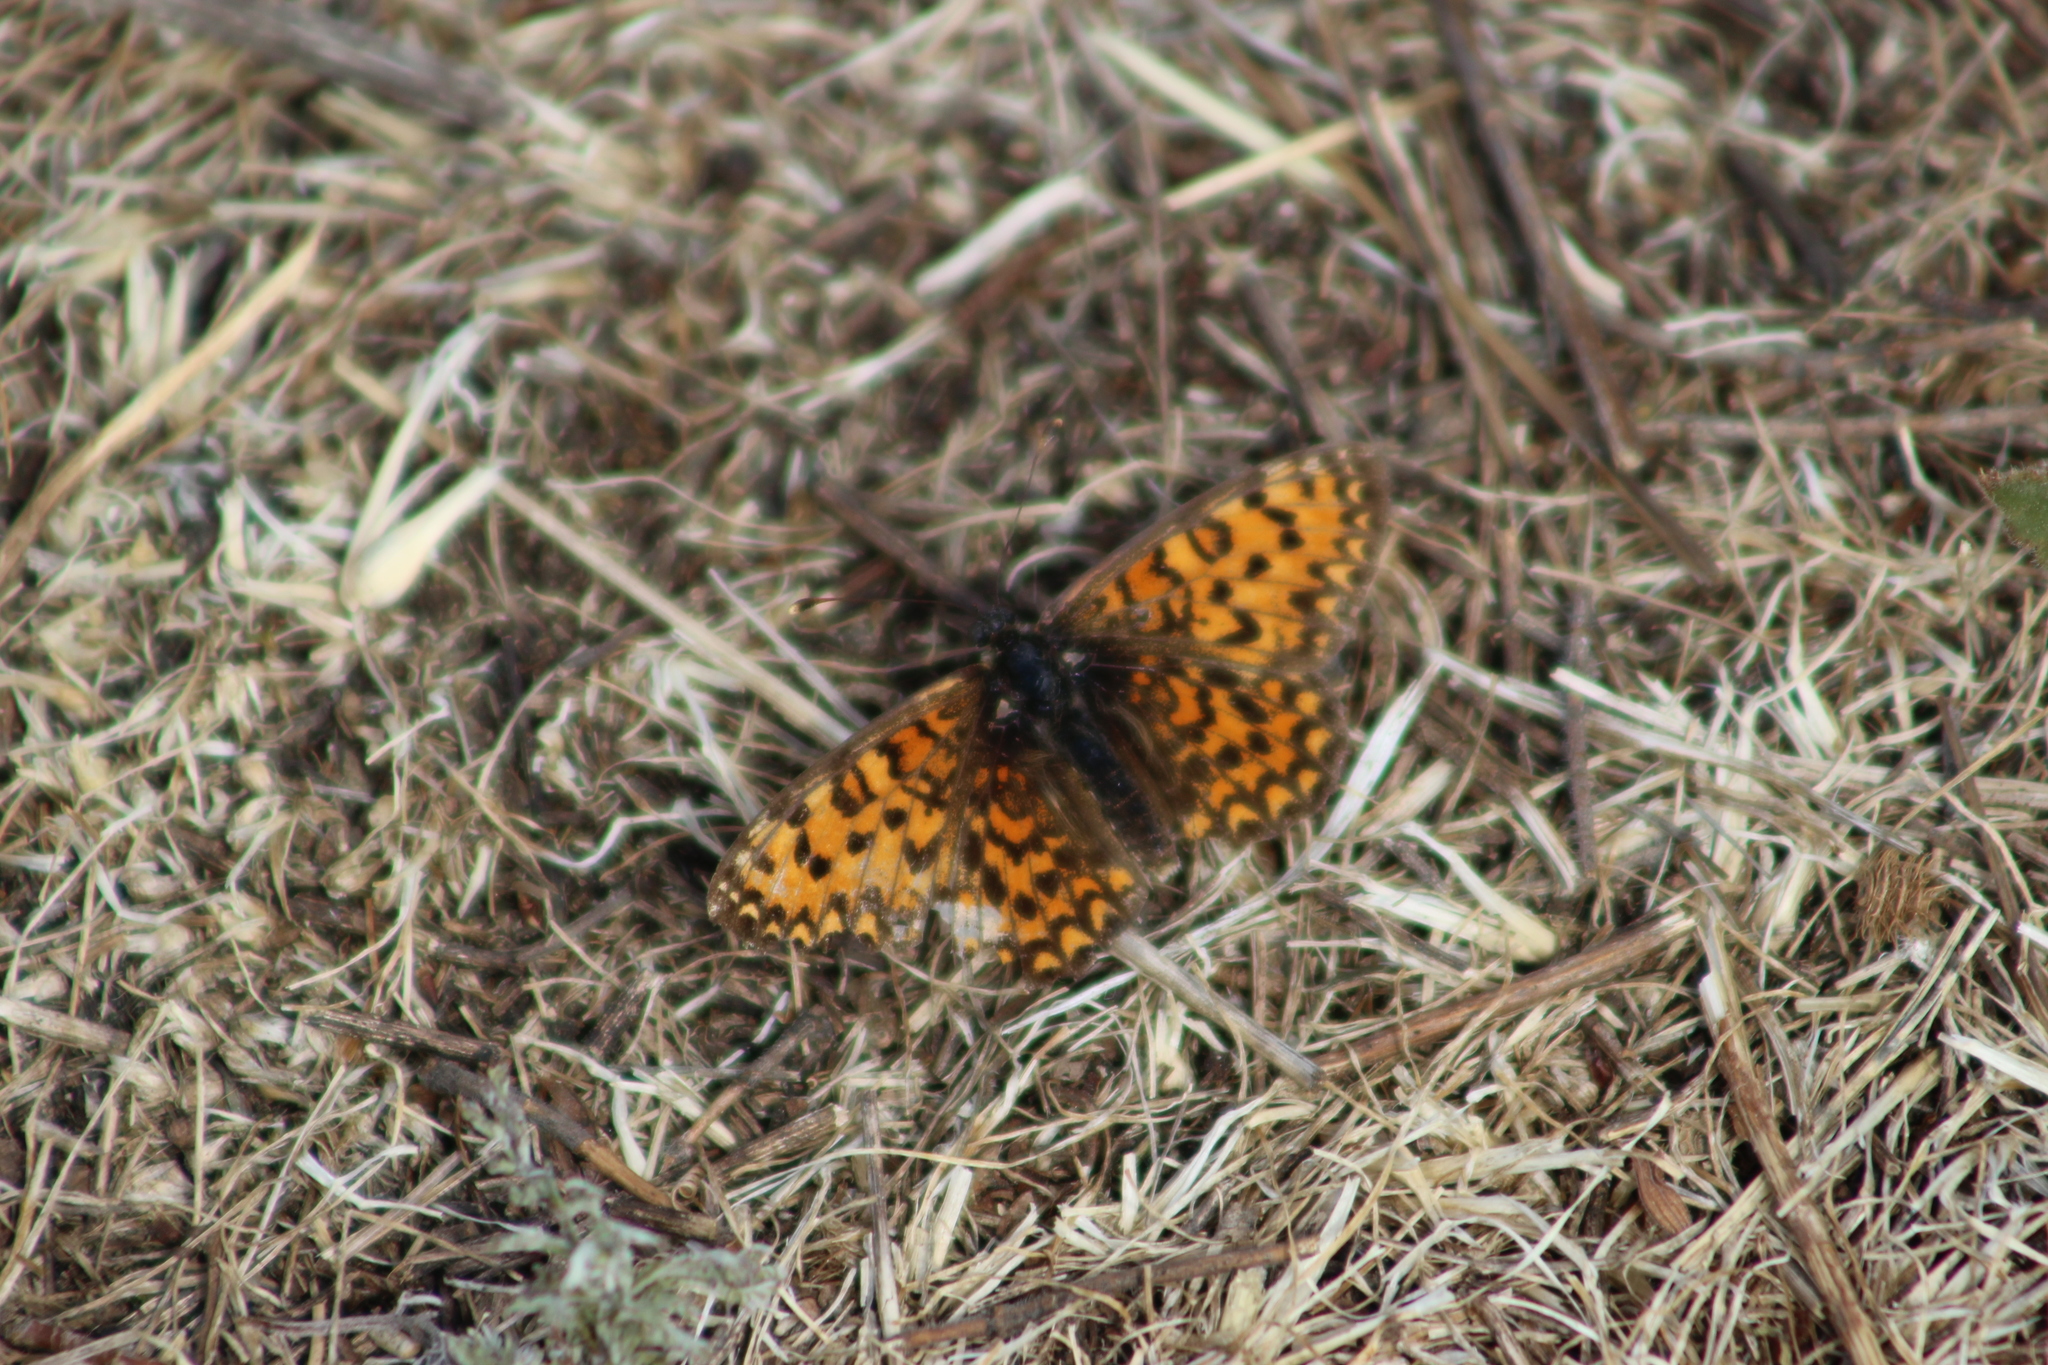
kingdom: Animalia
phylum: Arthropoda
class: Insecta
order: Lepidoptera
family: Nymphalidae
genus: Melitaea
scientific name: Melitaea trivia
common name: Lesser spotted fritillary
